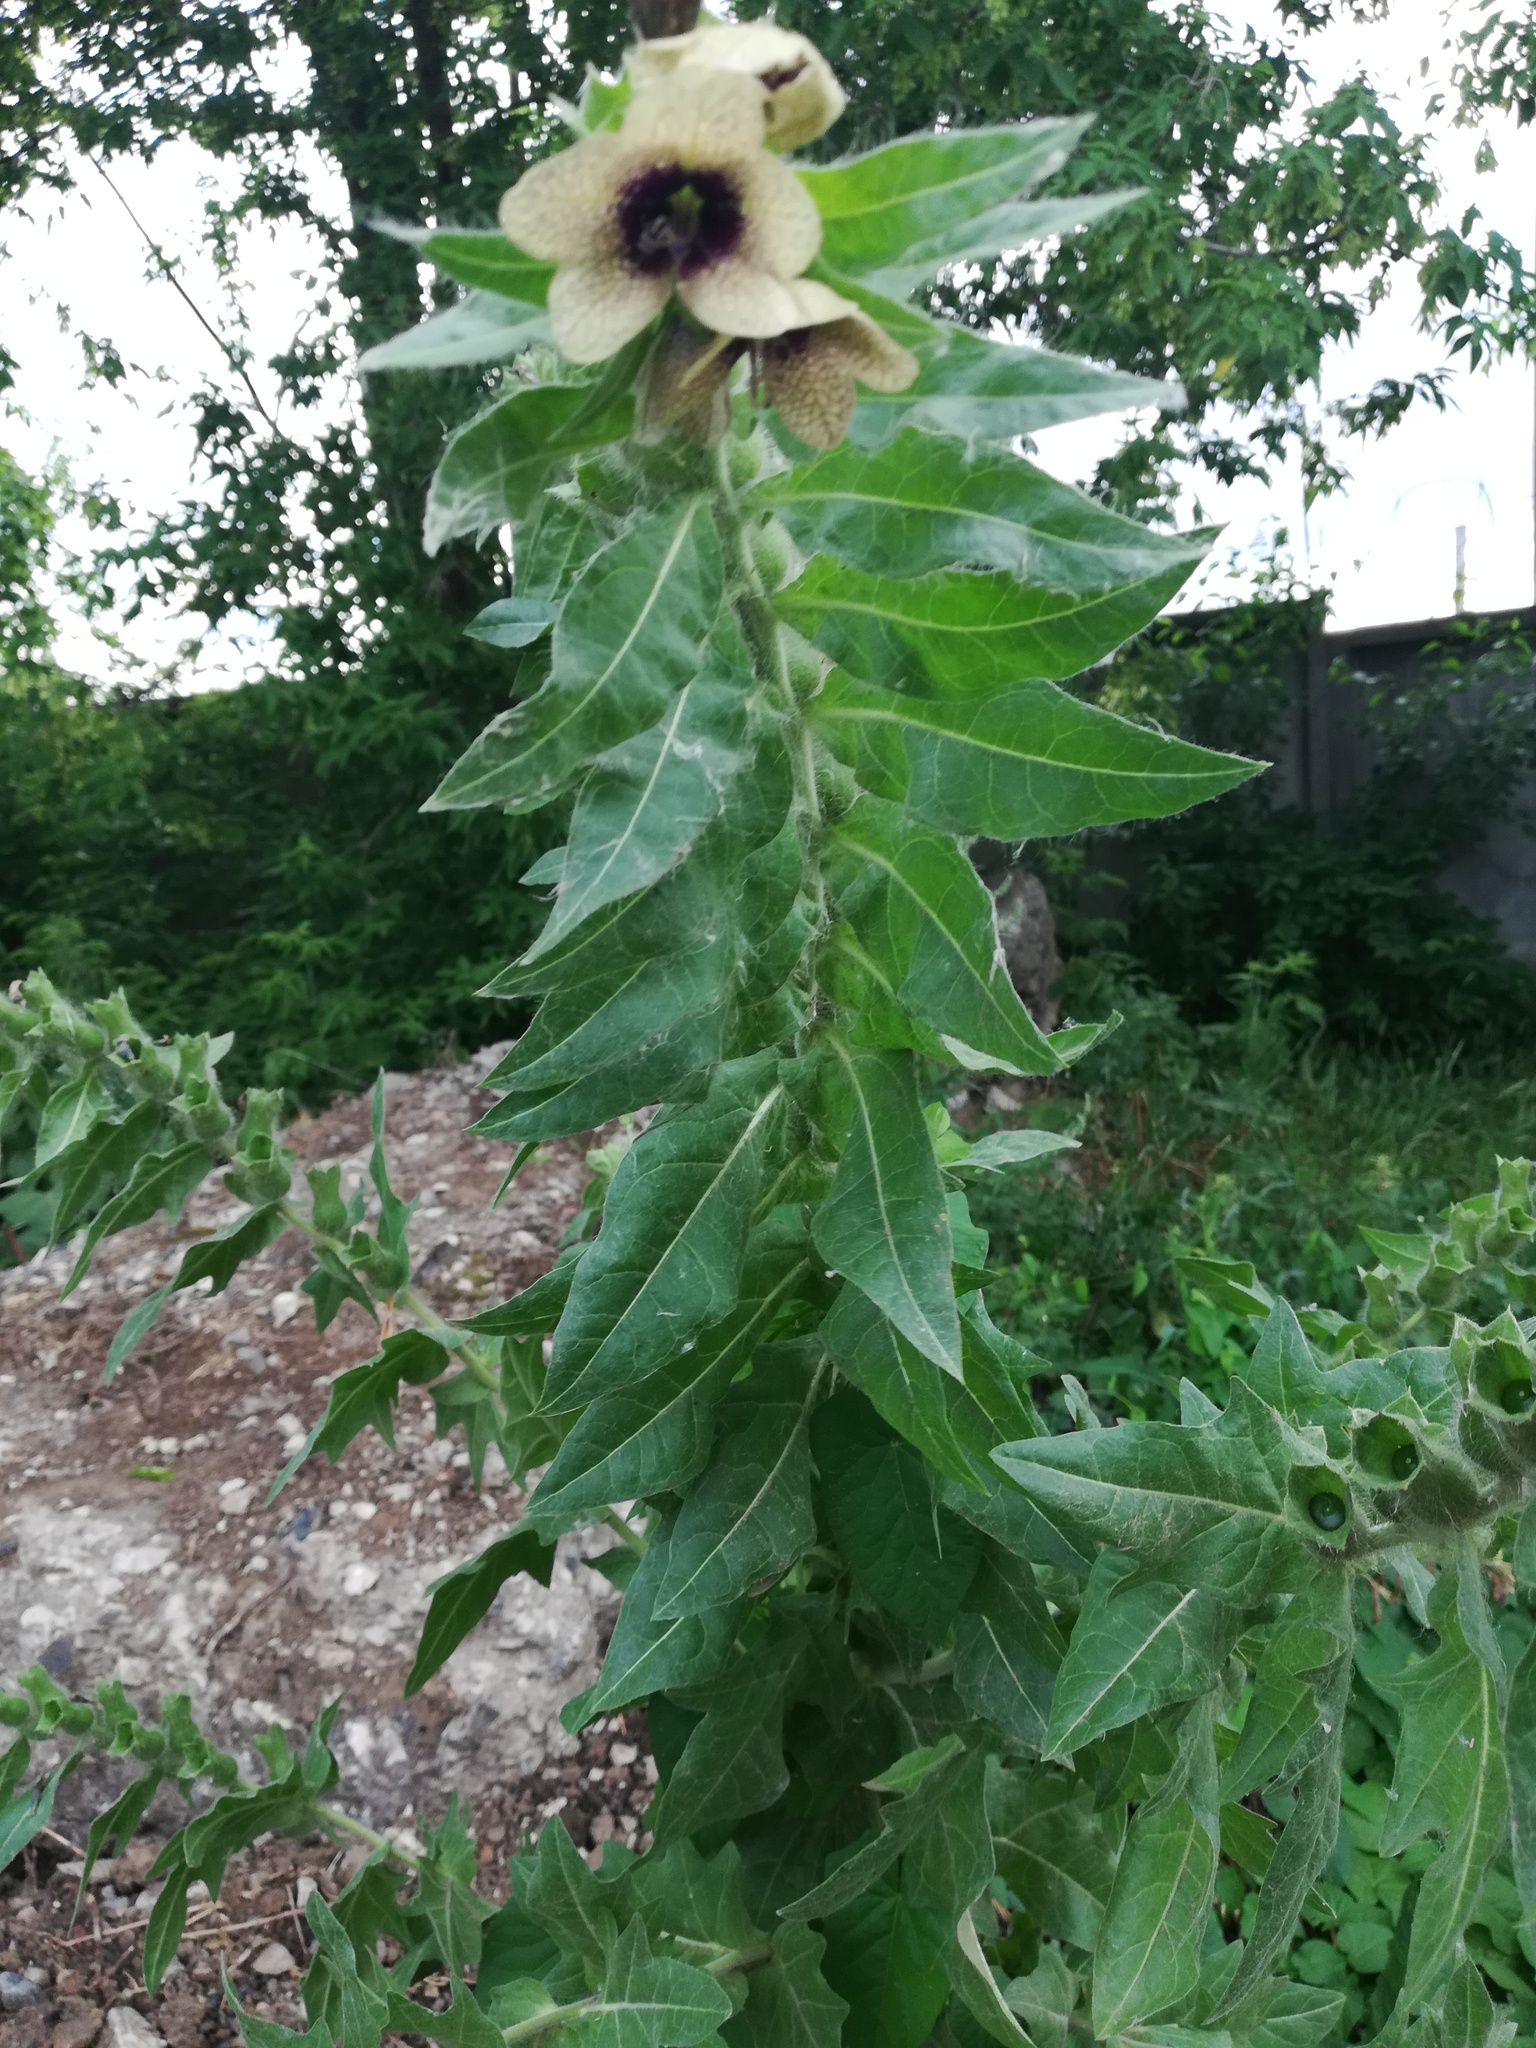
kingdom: Plantae
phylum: Tracheophyta
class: Magnoliopsida
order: Solanales
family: Solanaceae
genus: Hyoscyamus
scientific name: Hyoscyamus niger
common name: Henbane
